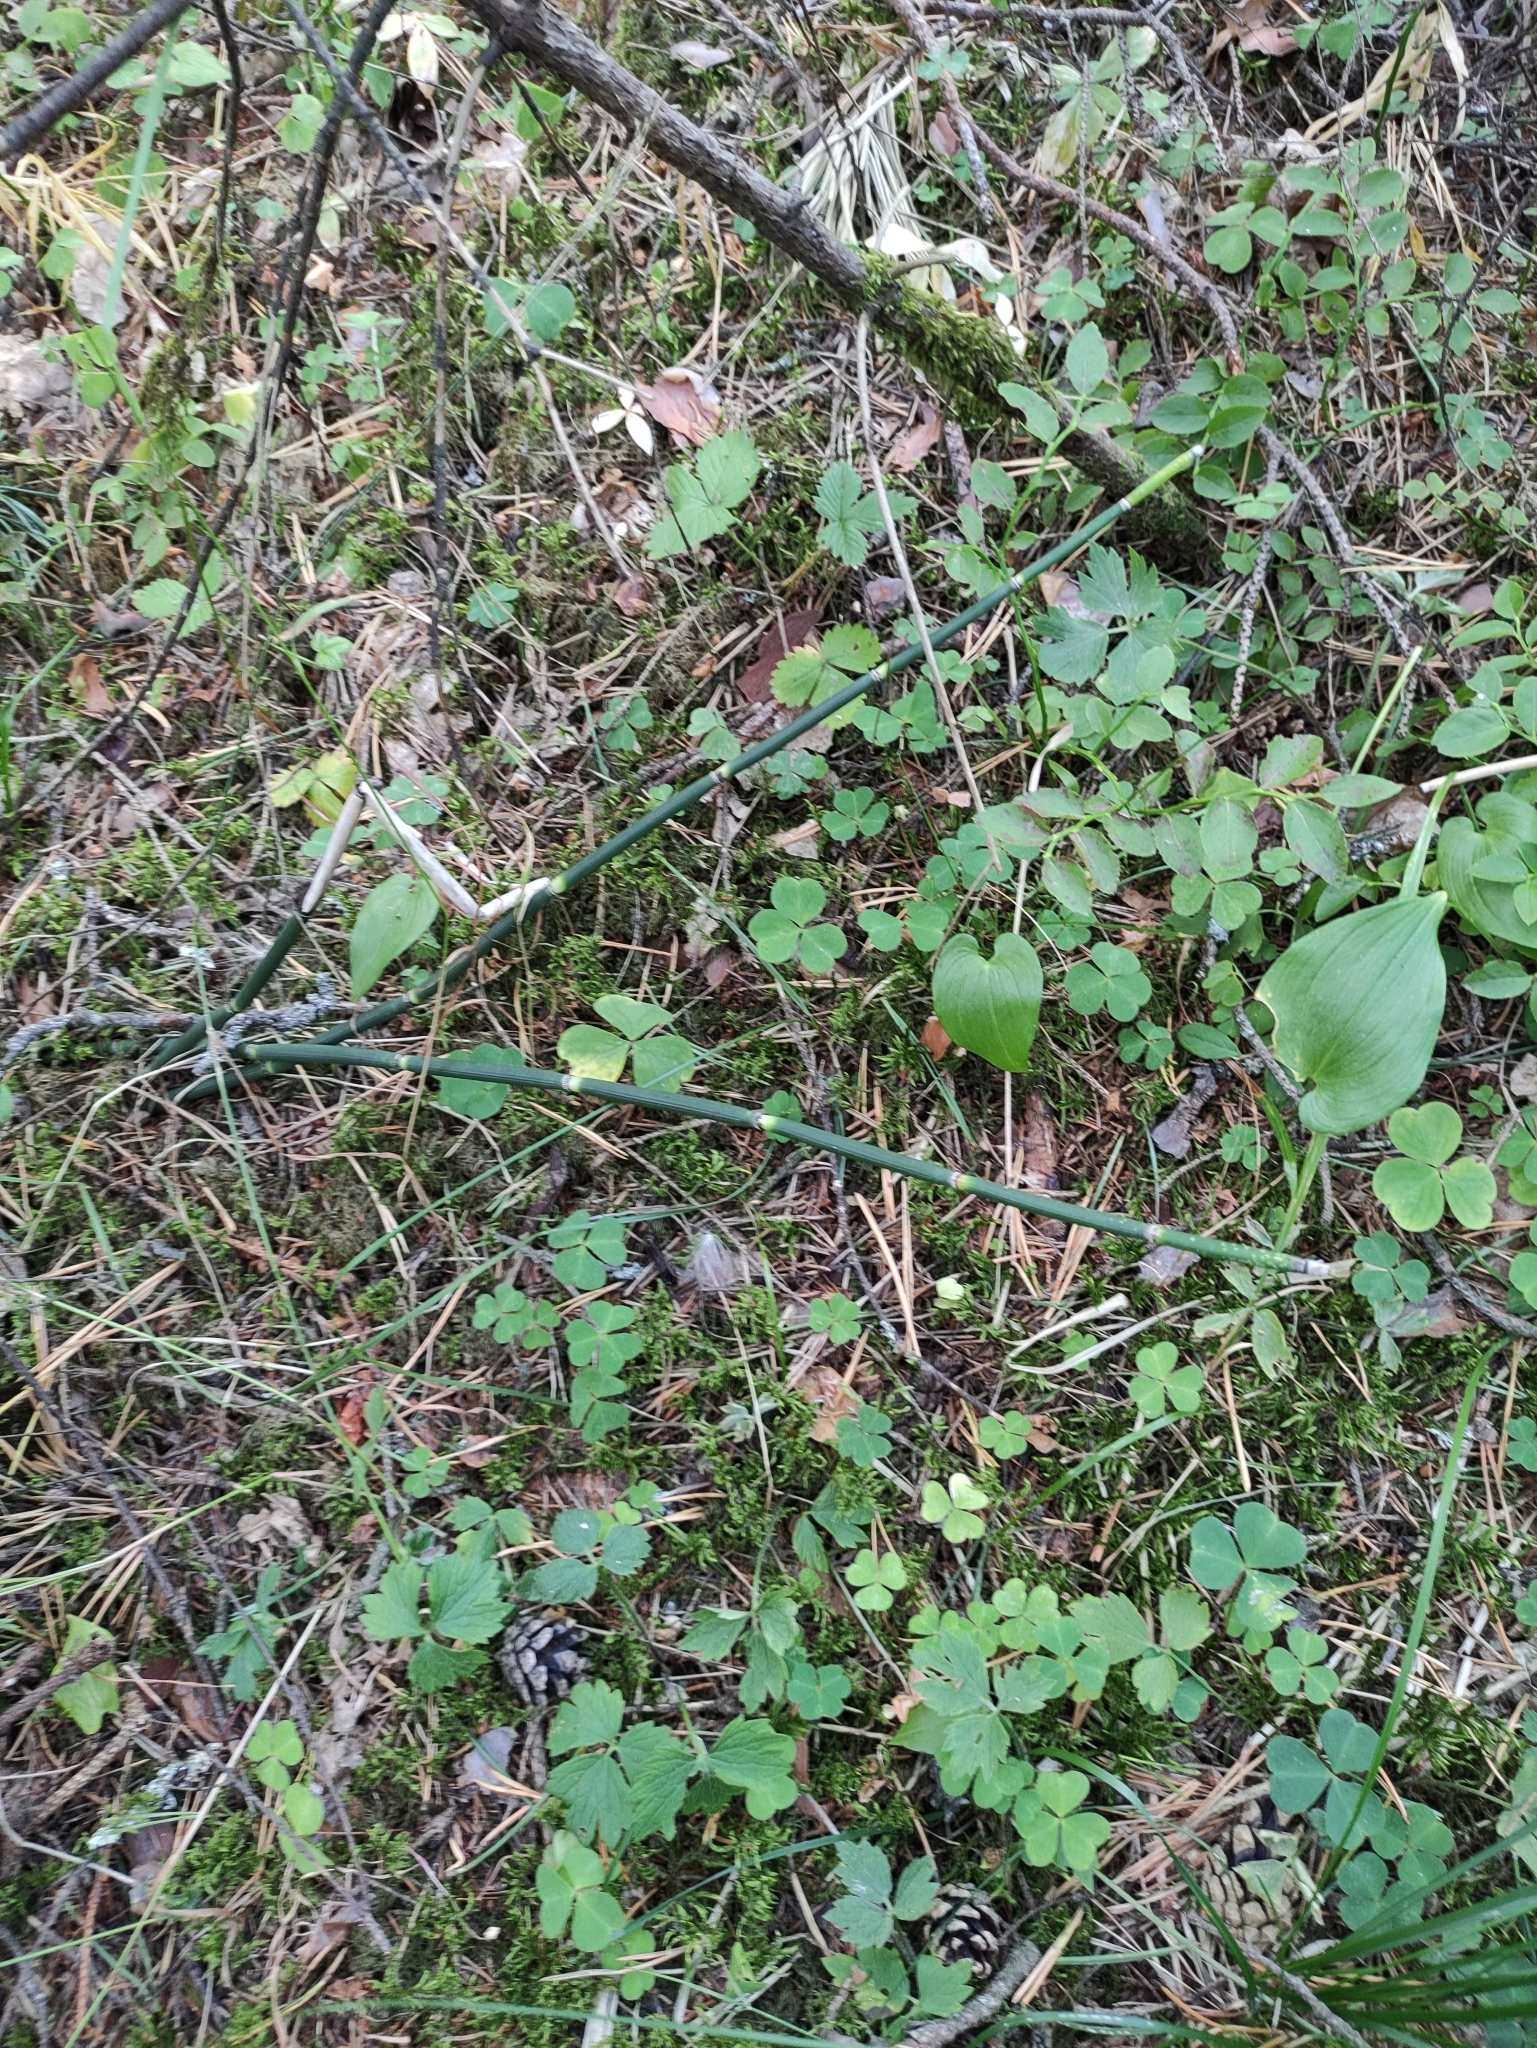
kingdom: Plantae
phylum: Tracheophyta
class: Polypodiopsida
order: Equisetales
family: Equisetaceae
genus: Equisetum
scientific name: Equisetum hyemale
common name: Rough horsetail
